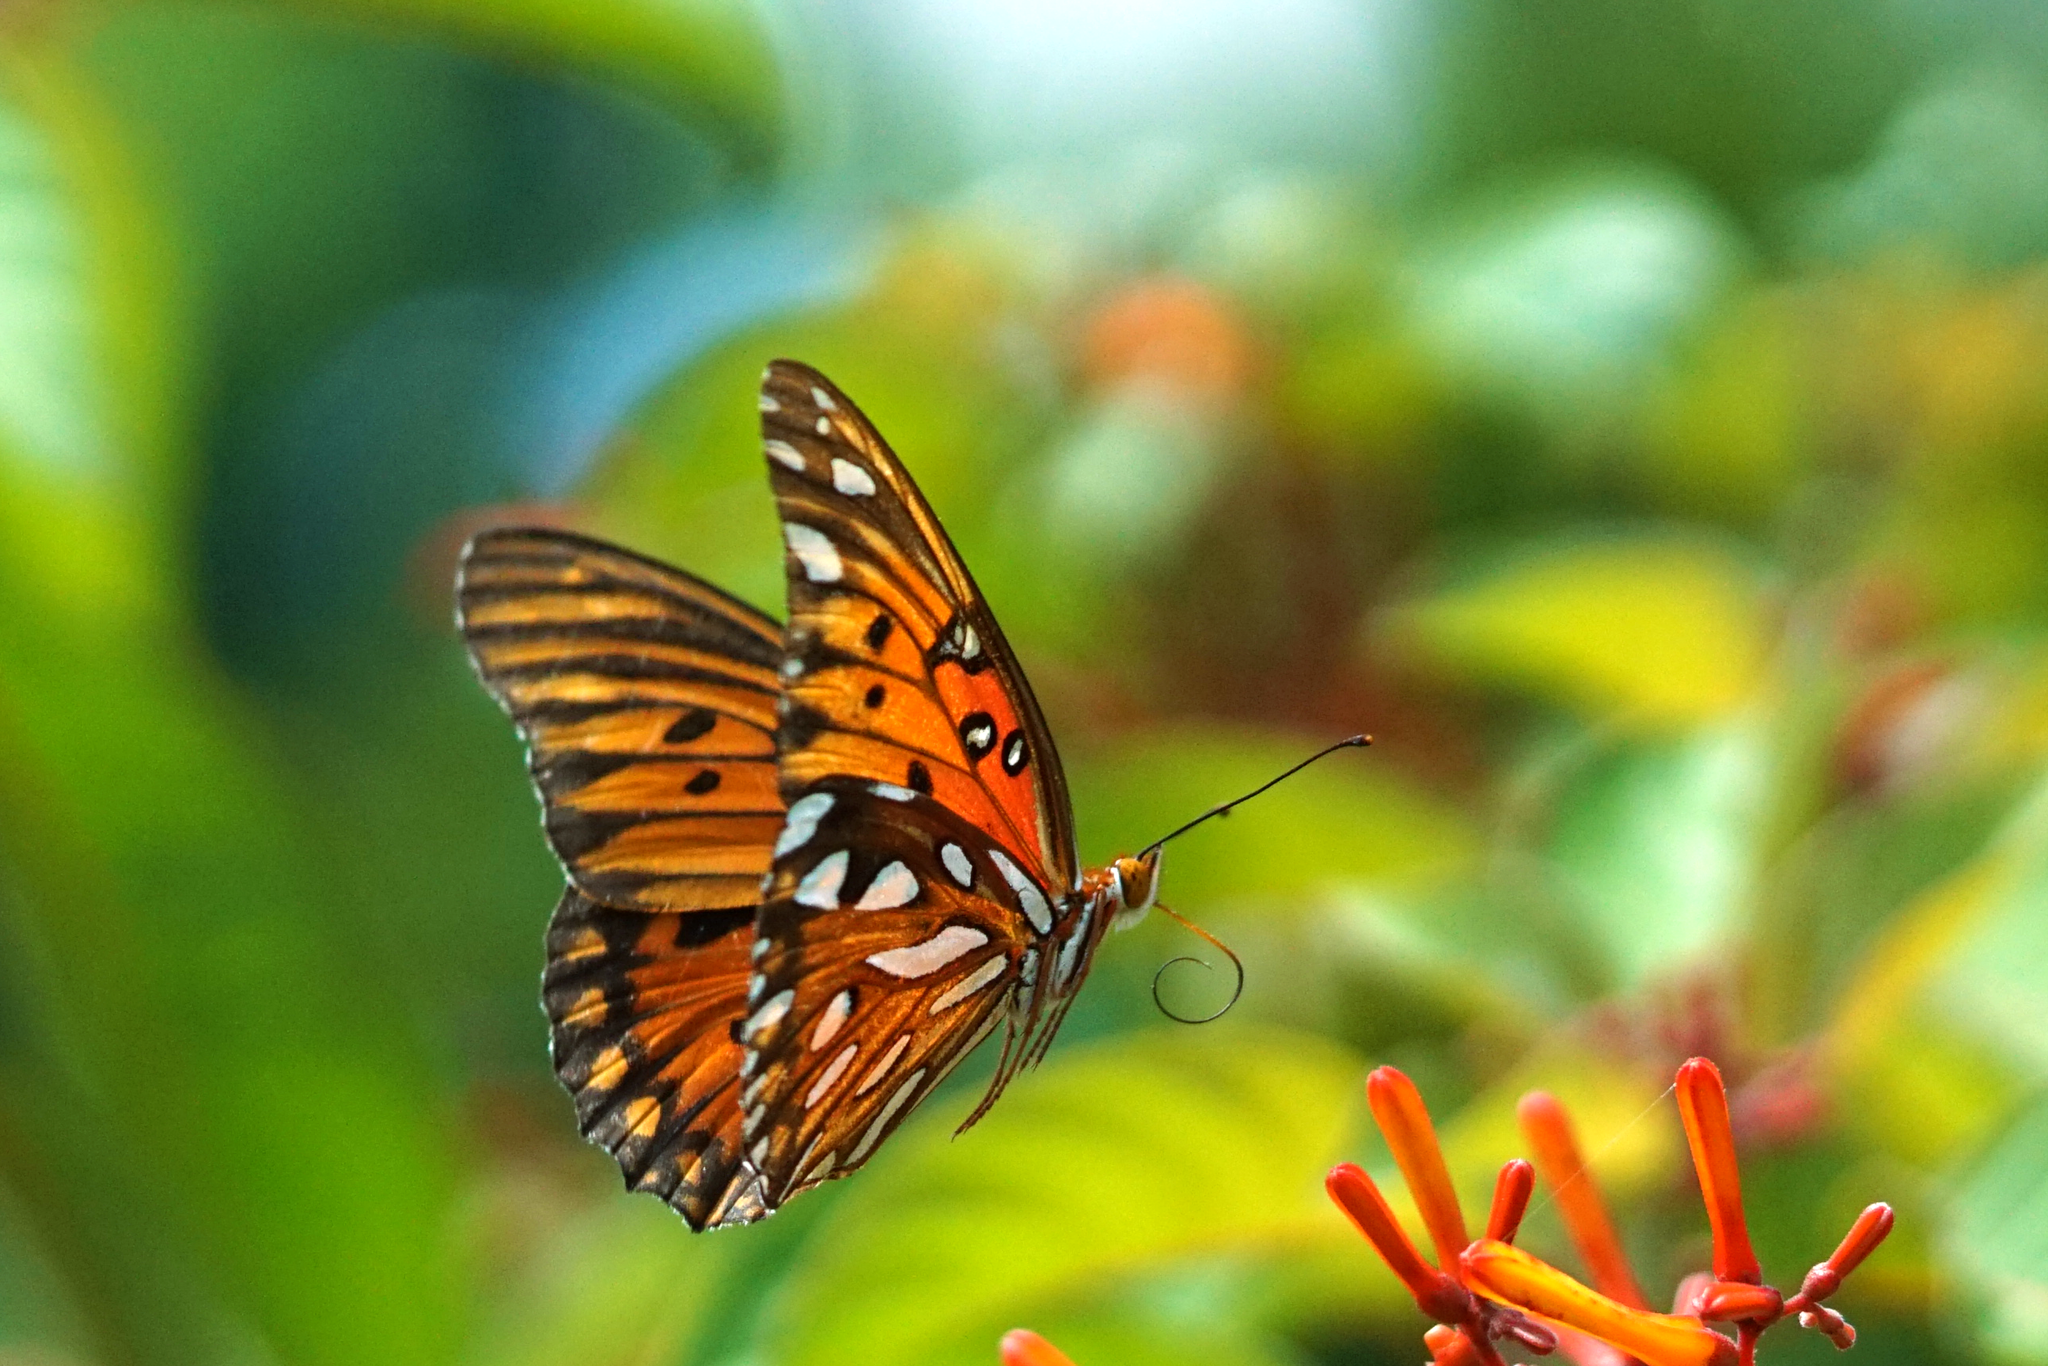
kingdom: Animalia
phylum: Arthropoda
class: Insecta
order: Lepidoptera
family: Nymphalidae
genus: Dione
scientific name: Dione vanillae
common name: Gulf fritillary
